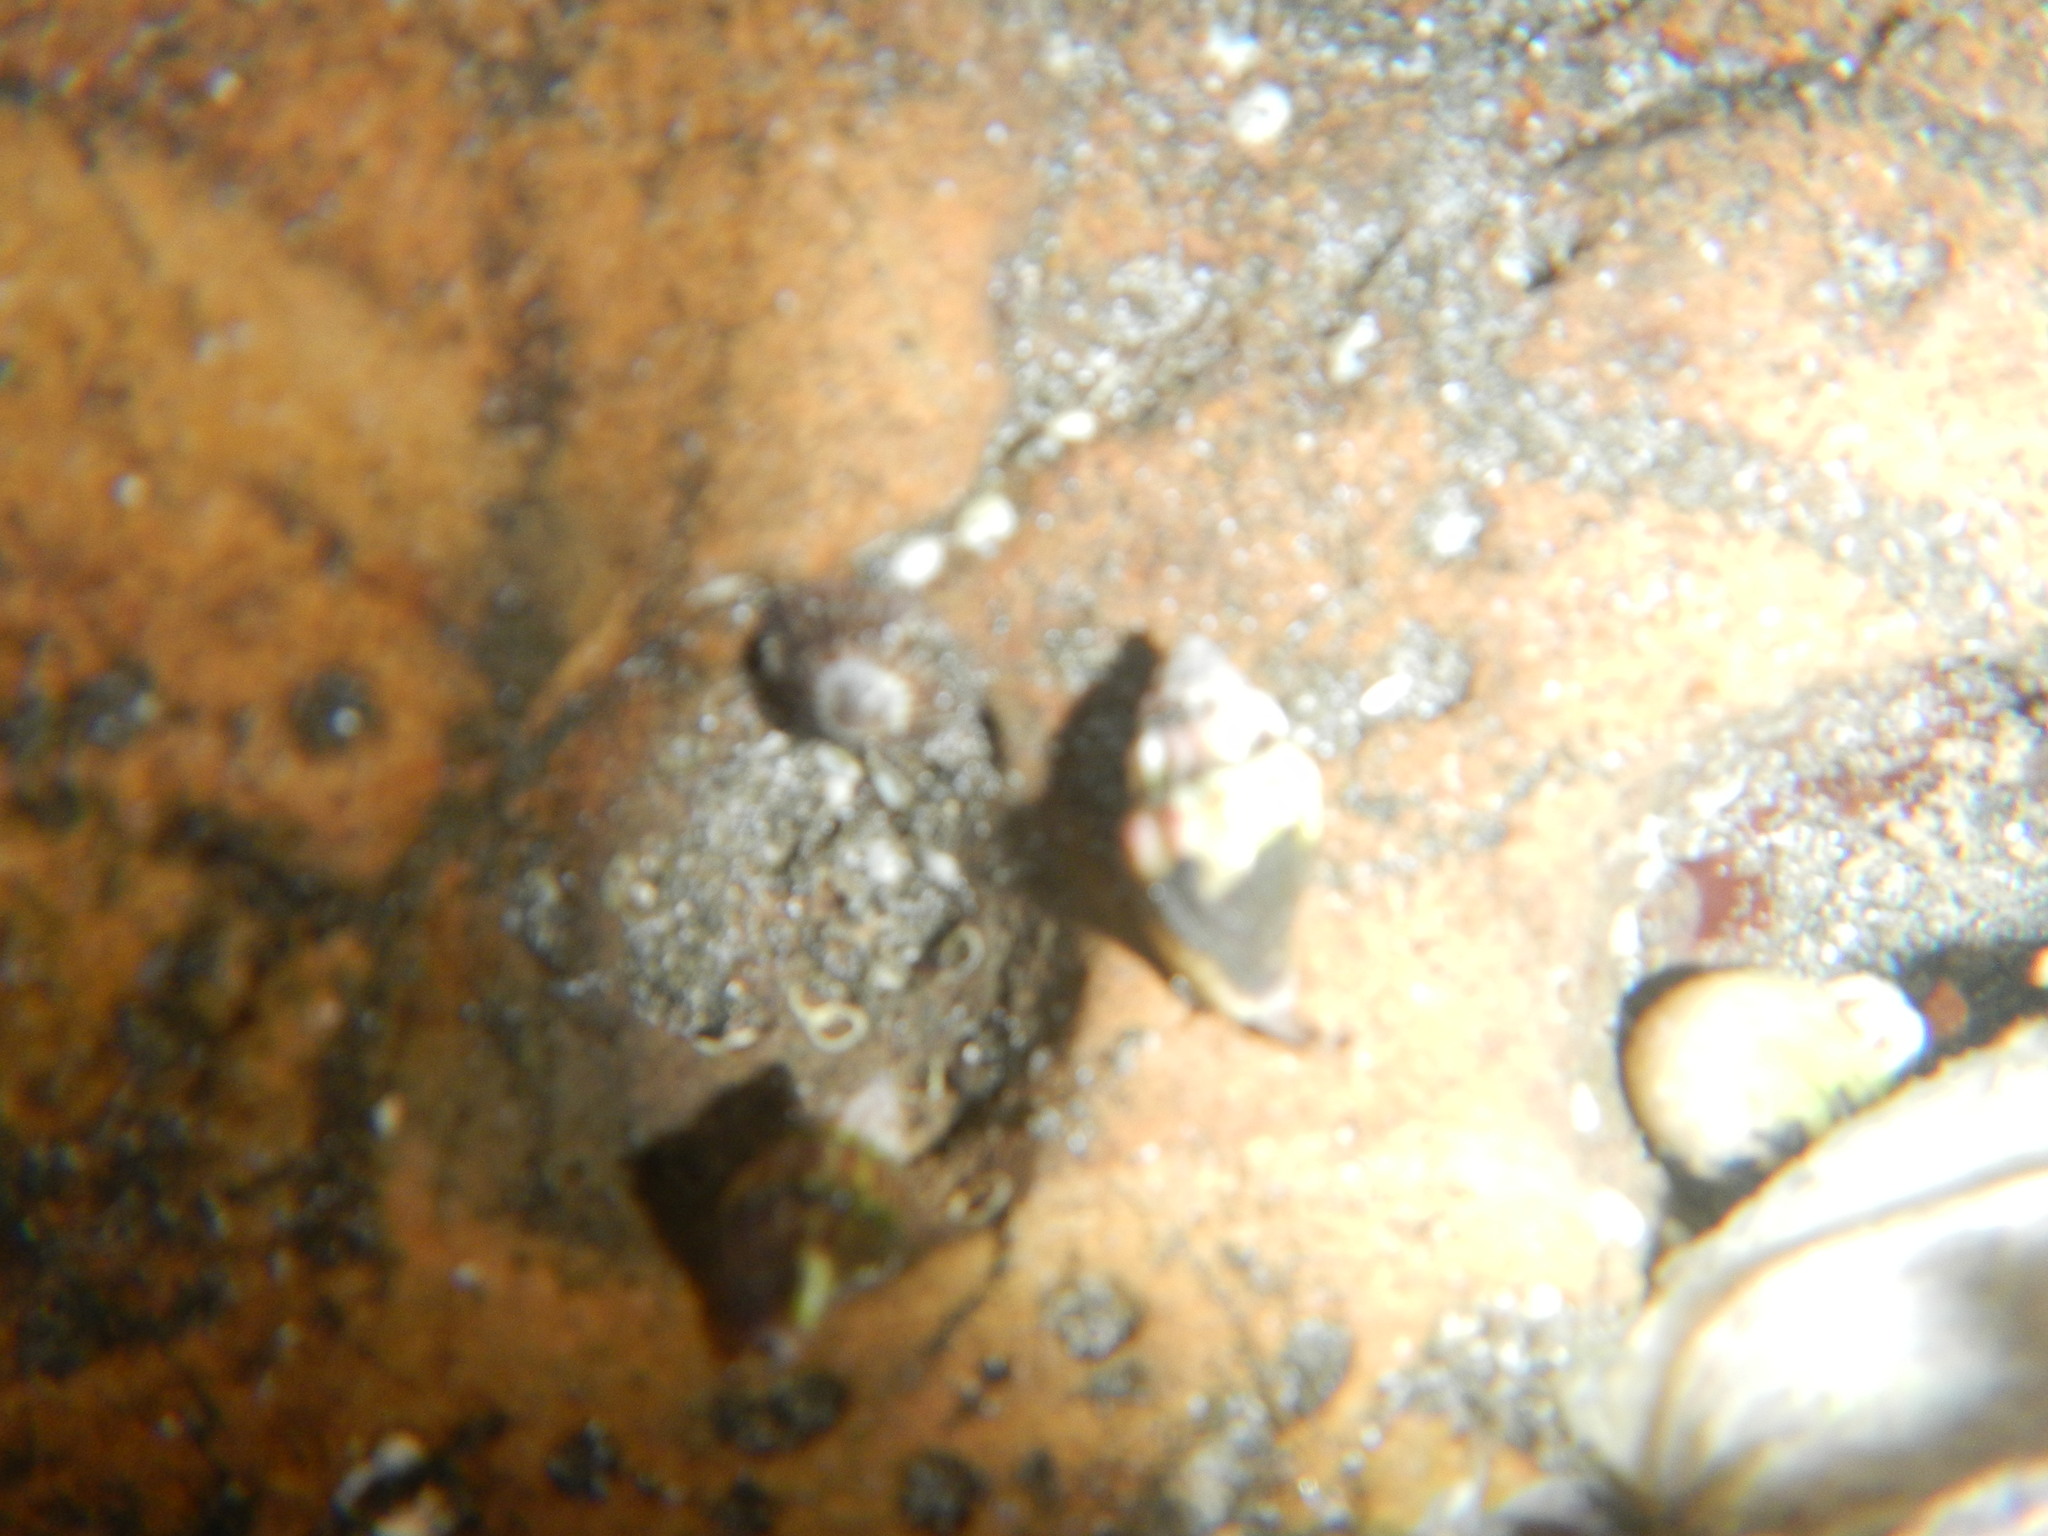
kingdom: Animalia
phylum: Mollusca
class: Gastropoda
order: Neogastropoda
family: Columbellidae
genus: Anachis
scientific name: Anachis rugosa
